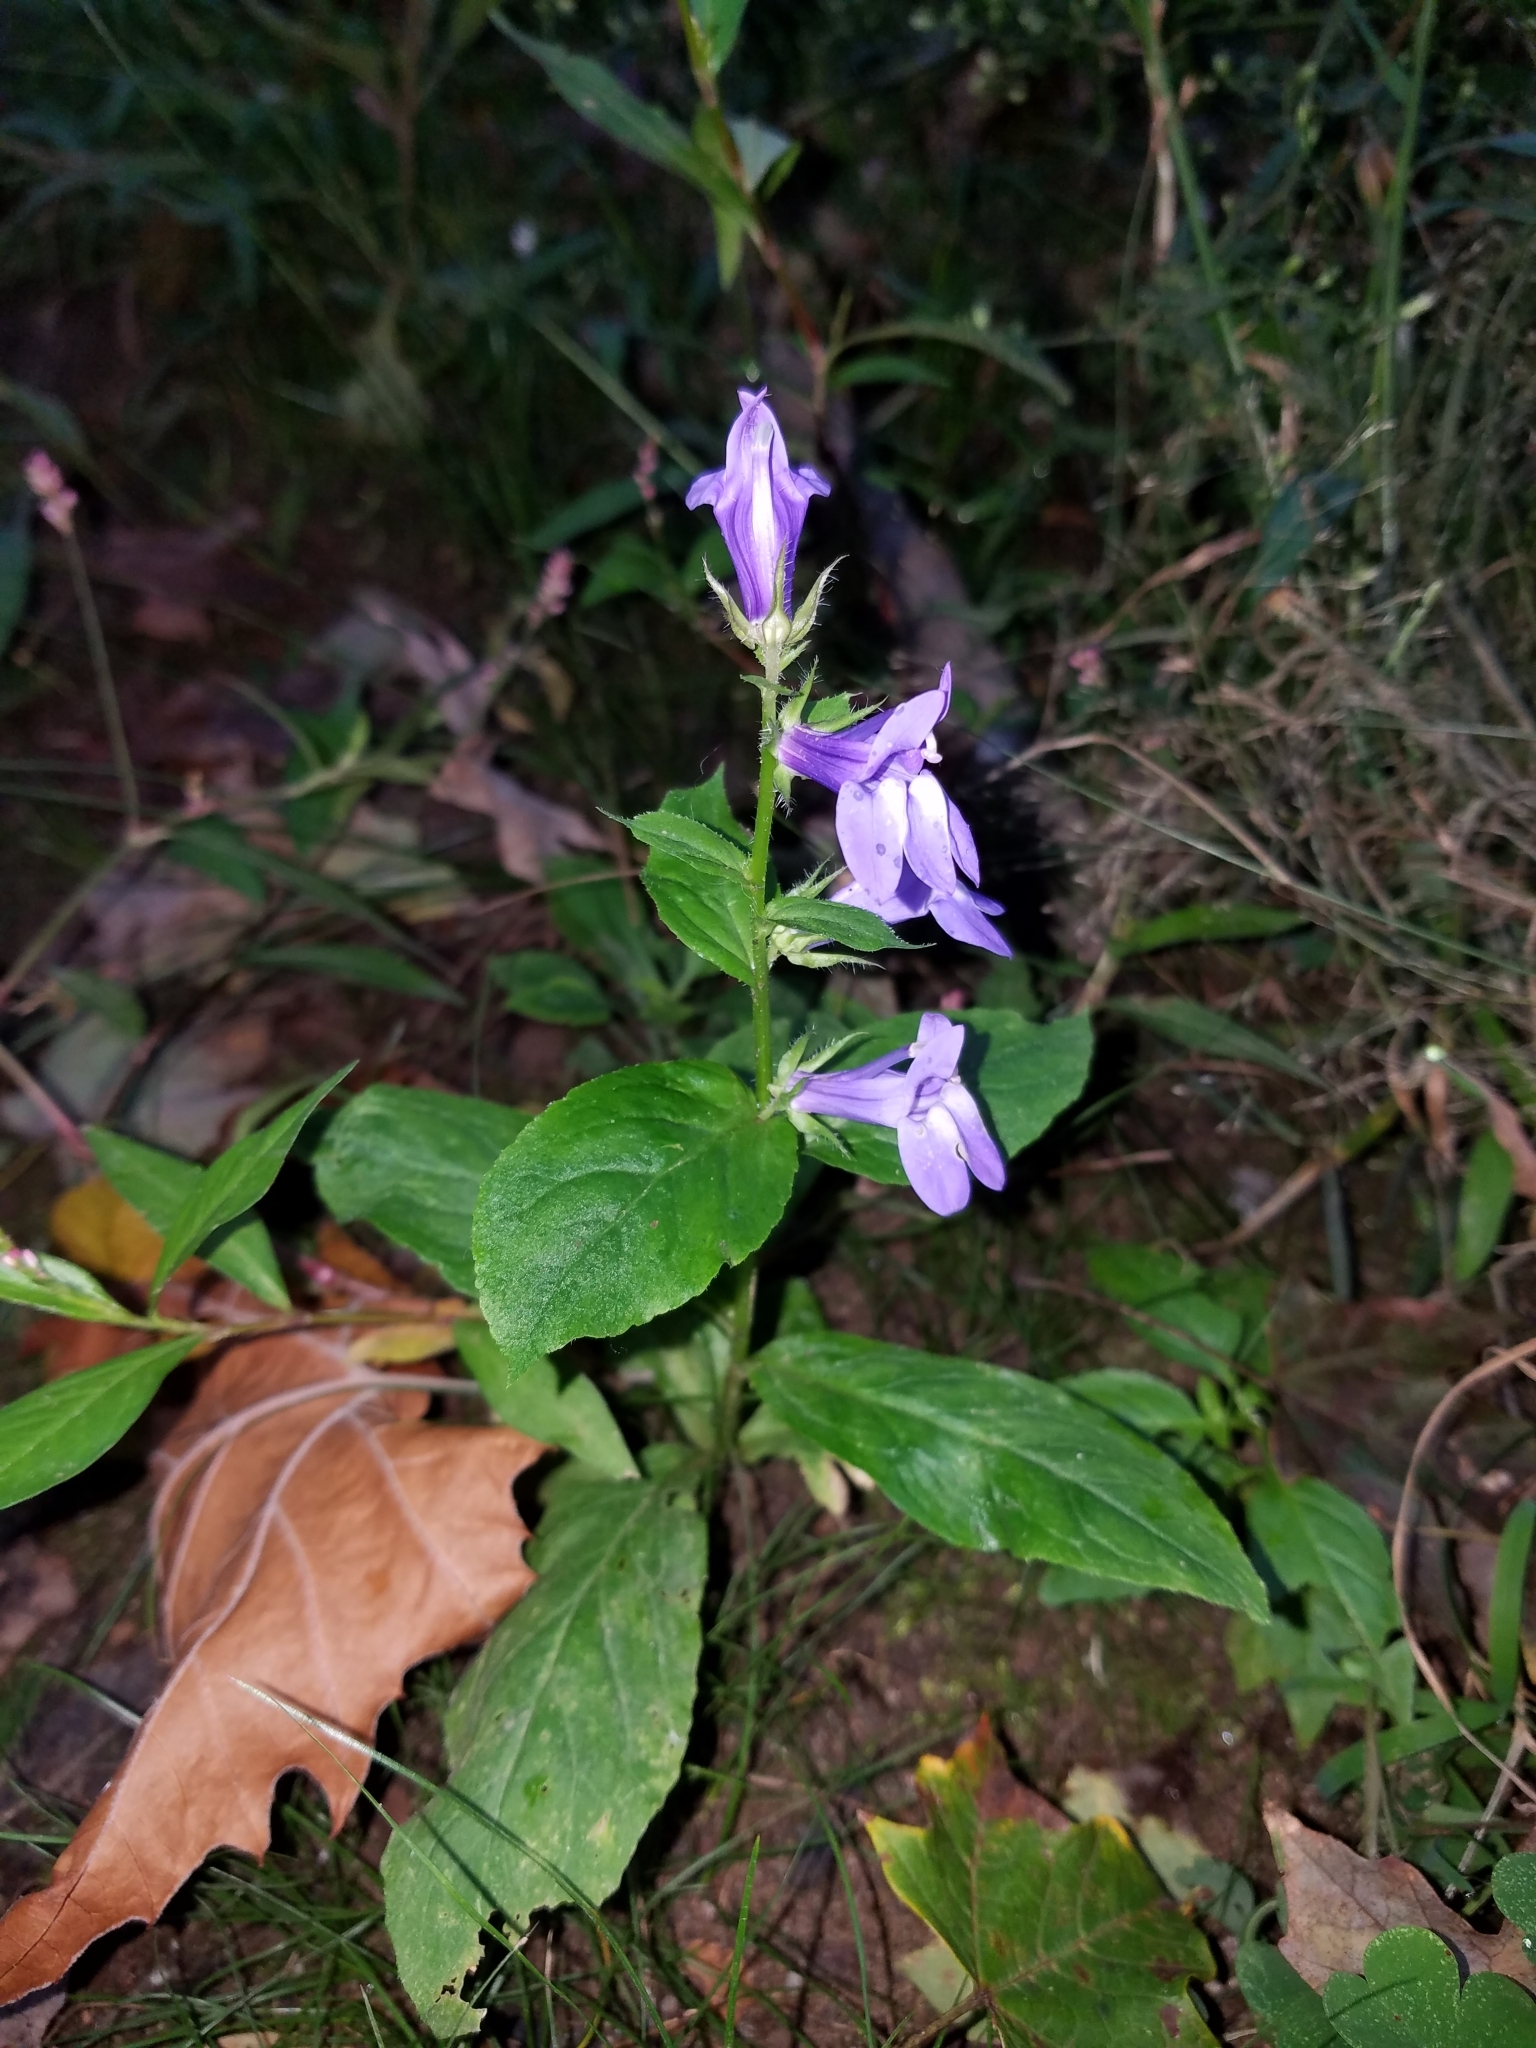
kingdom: Plantae
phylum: Tracheophyta
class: Magnoliopsida
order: Asterales
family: Campanulaceae
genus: Lobelia
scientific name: Lobelia siphilitica
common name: Great lobelia
